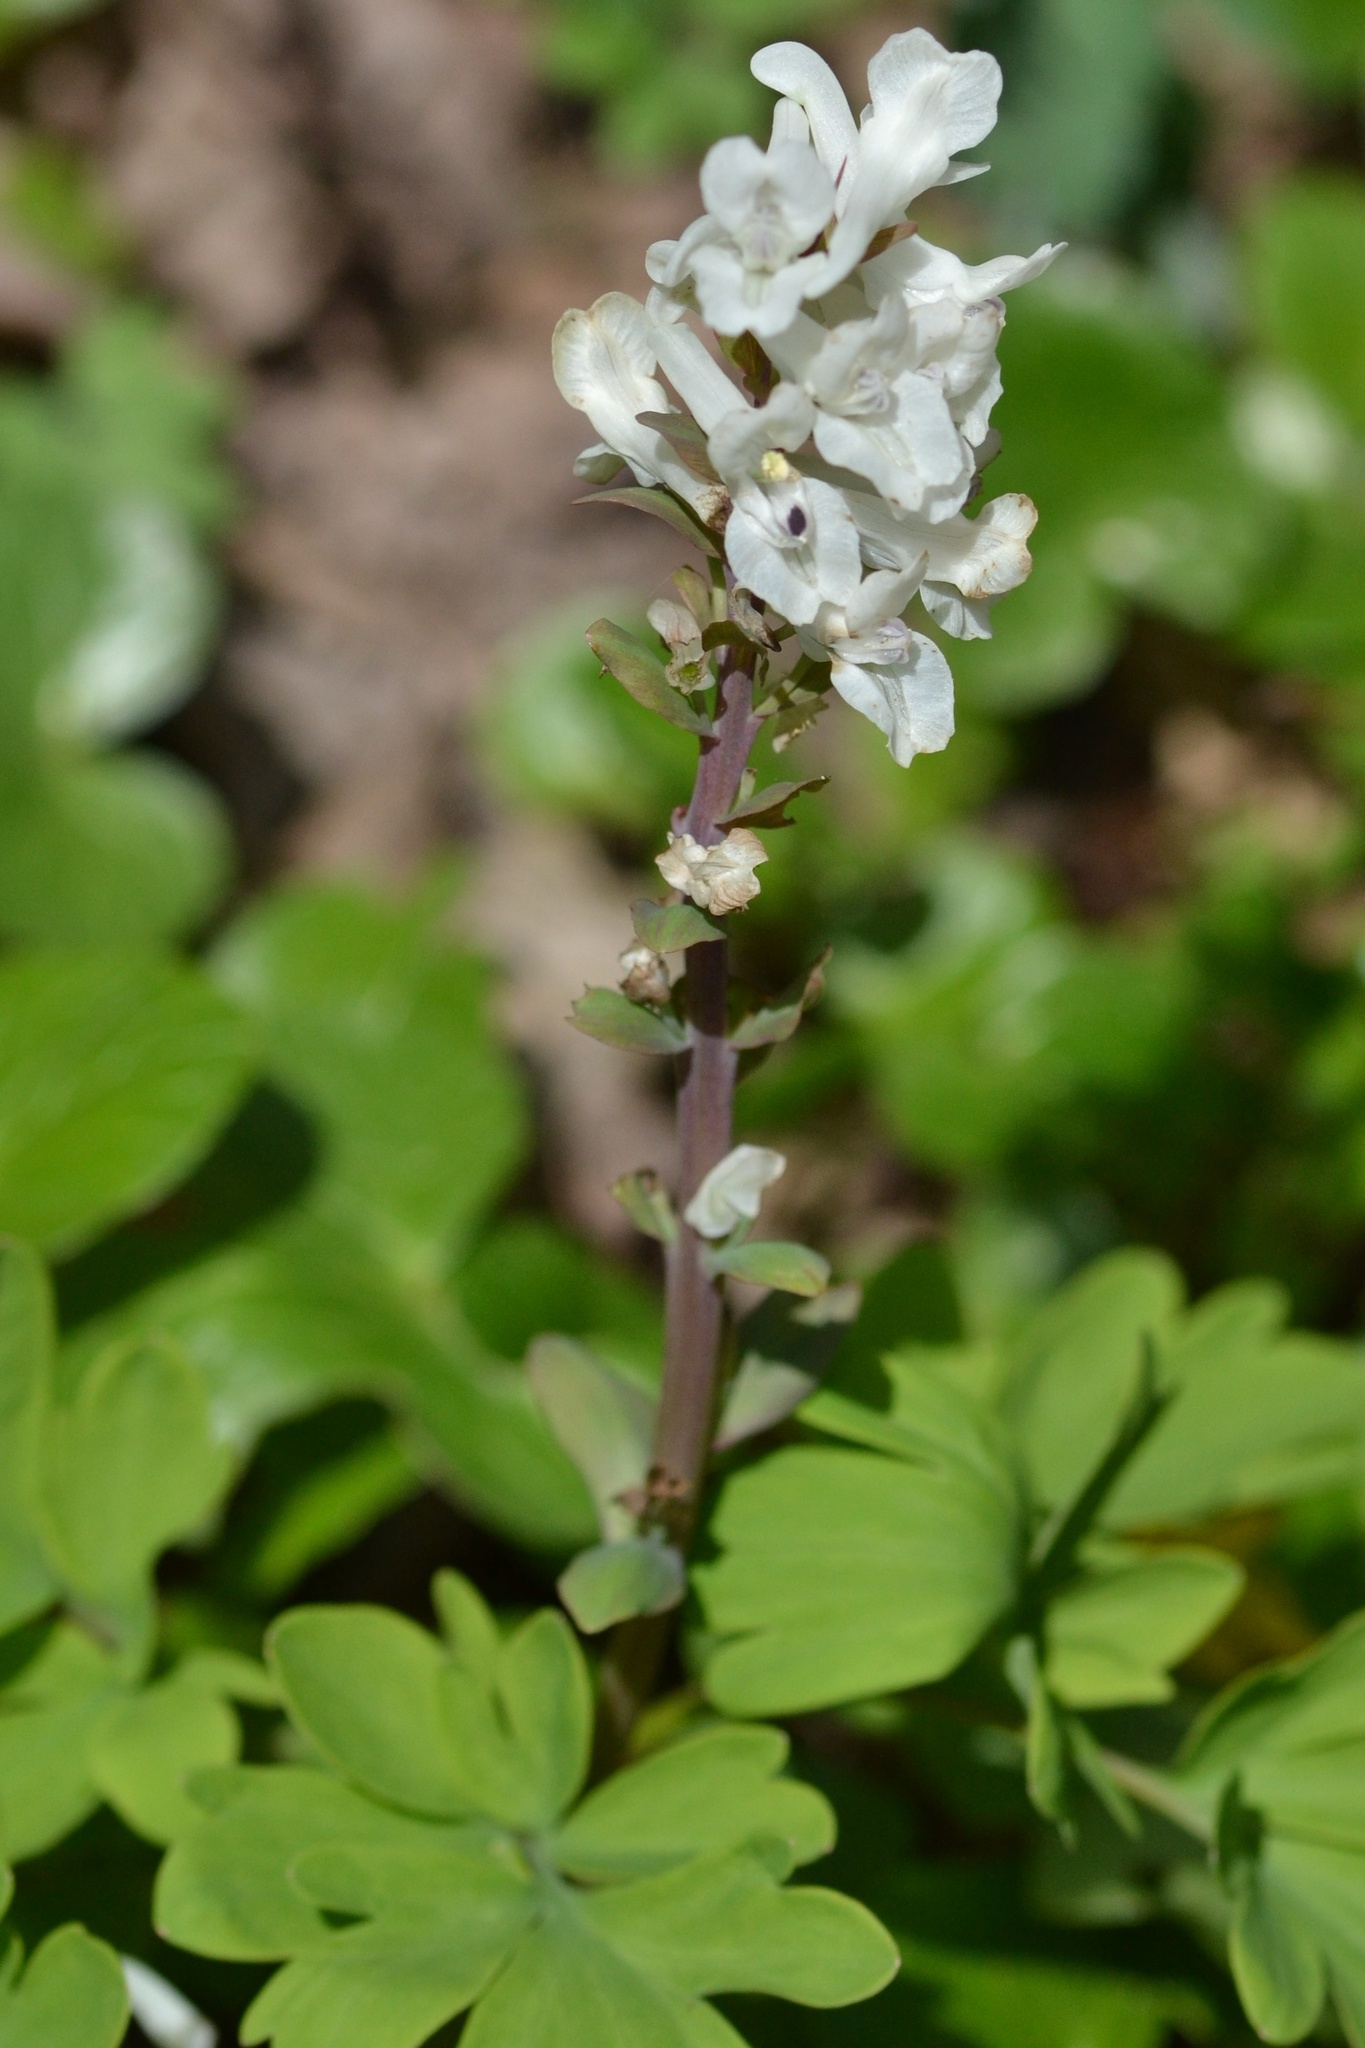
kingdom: Plantae
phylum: Tracheophyta
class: Magnoliopsida
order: Ranunculales
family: Papaveraceae
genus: Corydalis
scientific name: Corydalis cava
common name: Hollowroot
